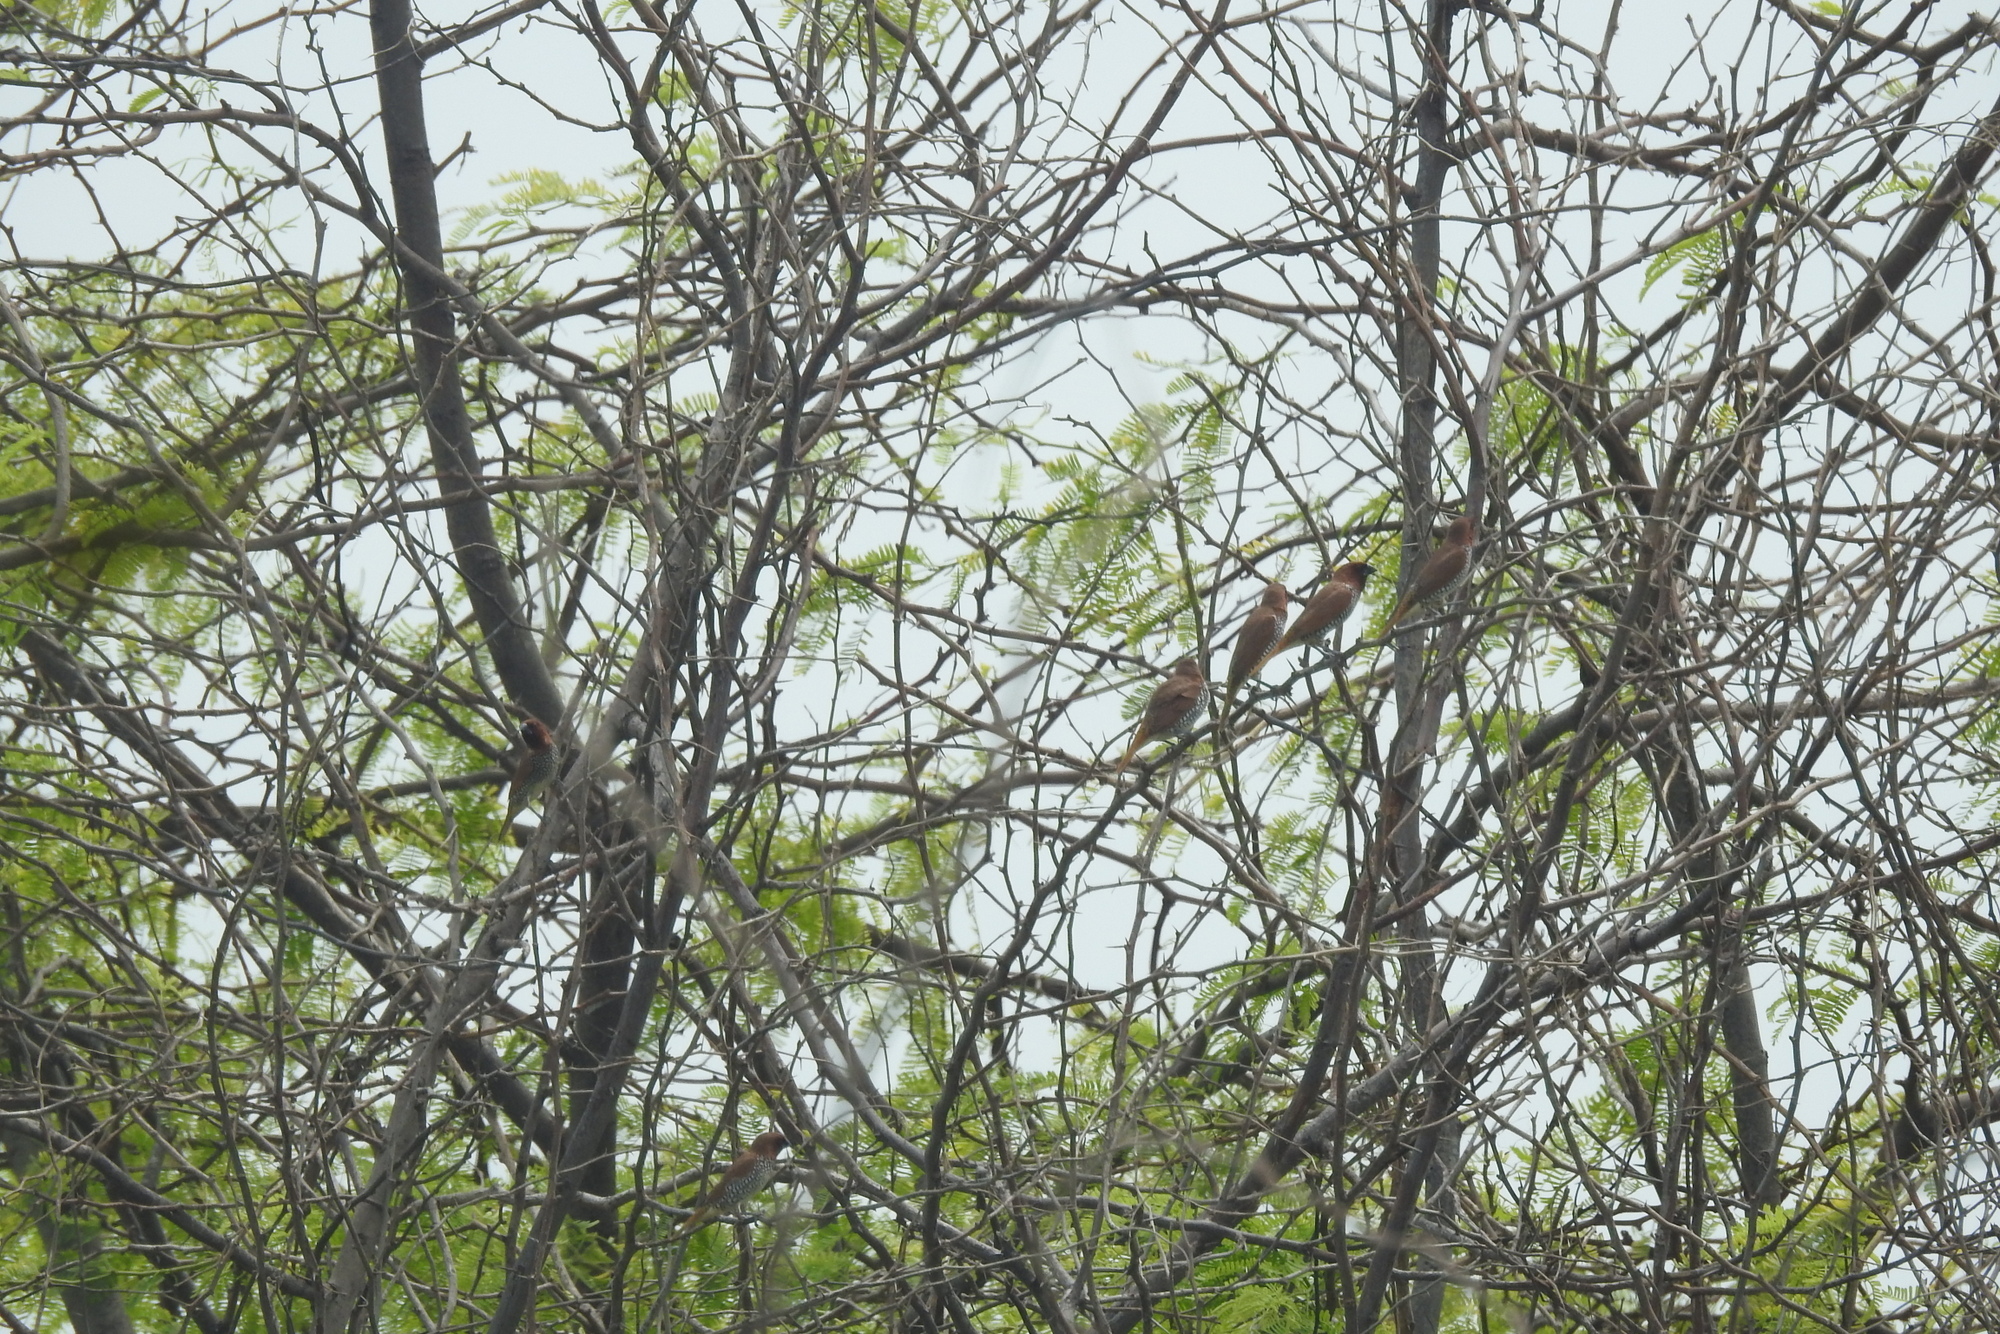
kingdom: Animalia
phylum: Chordata
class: Aves
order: Passeriformes
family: Estrildidae
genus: Lonchura
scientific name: Lonchura punctulata
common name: Scaly-breasted munia
